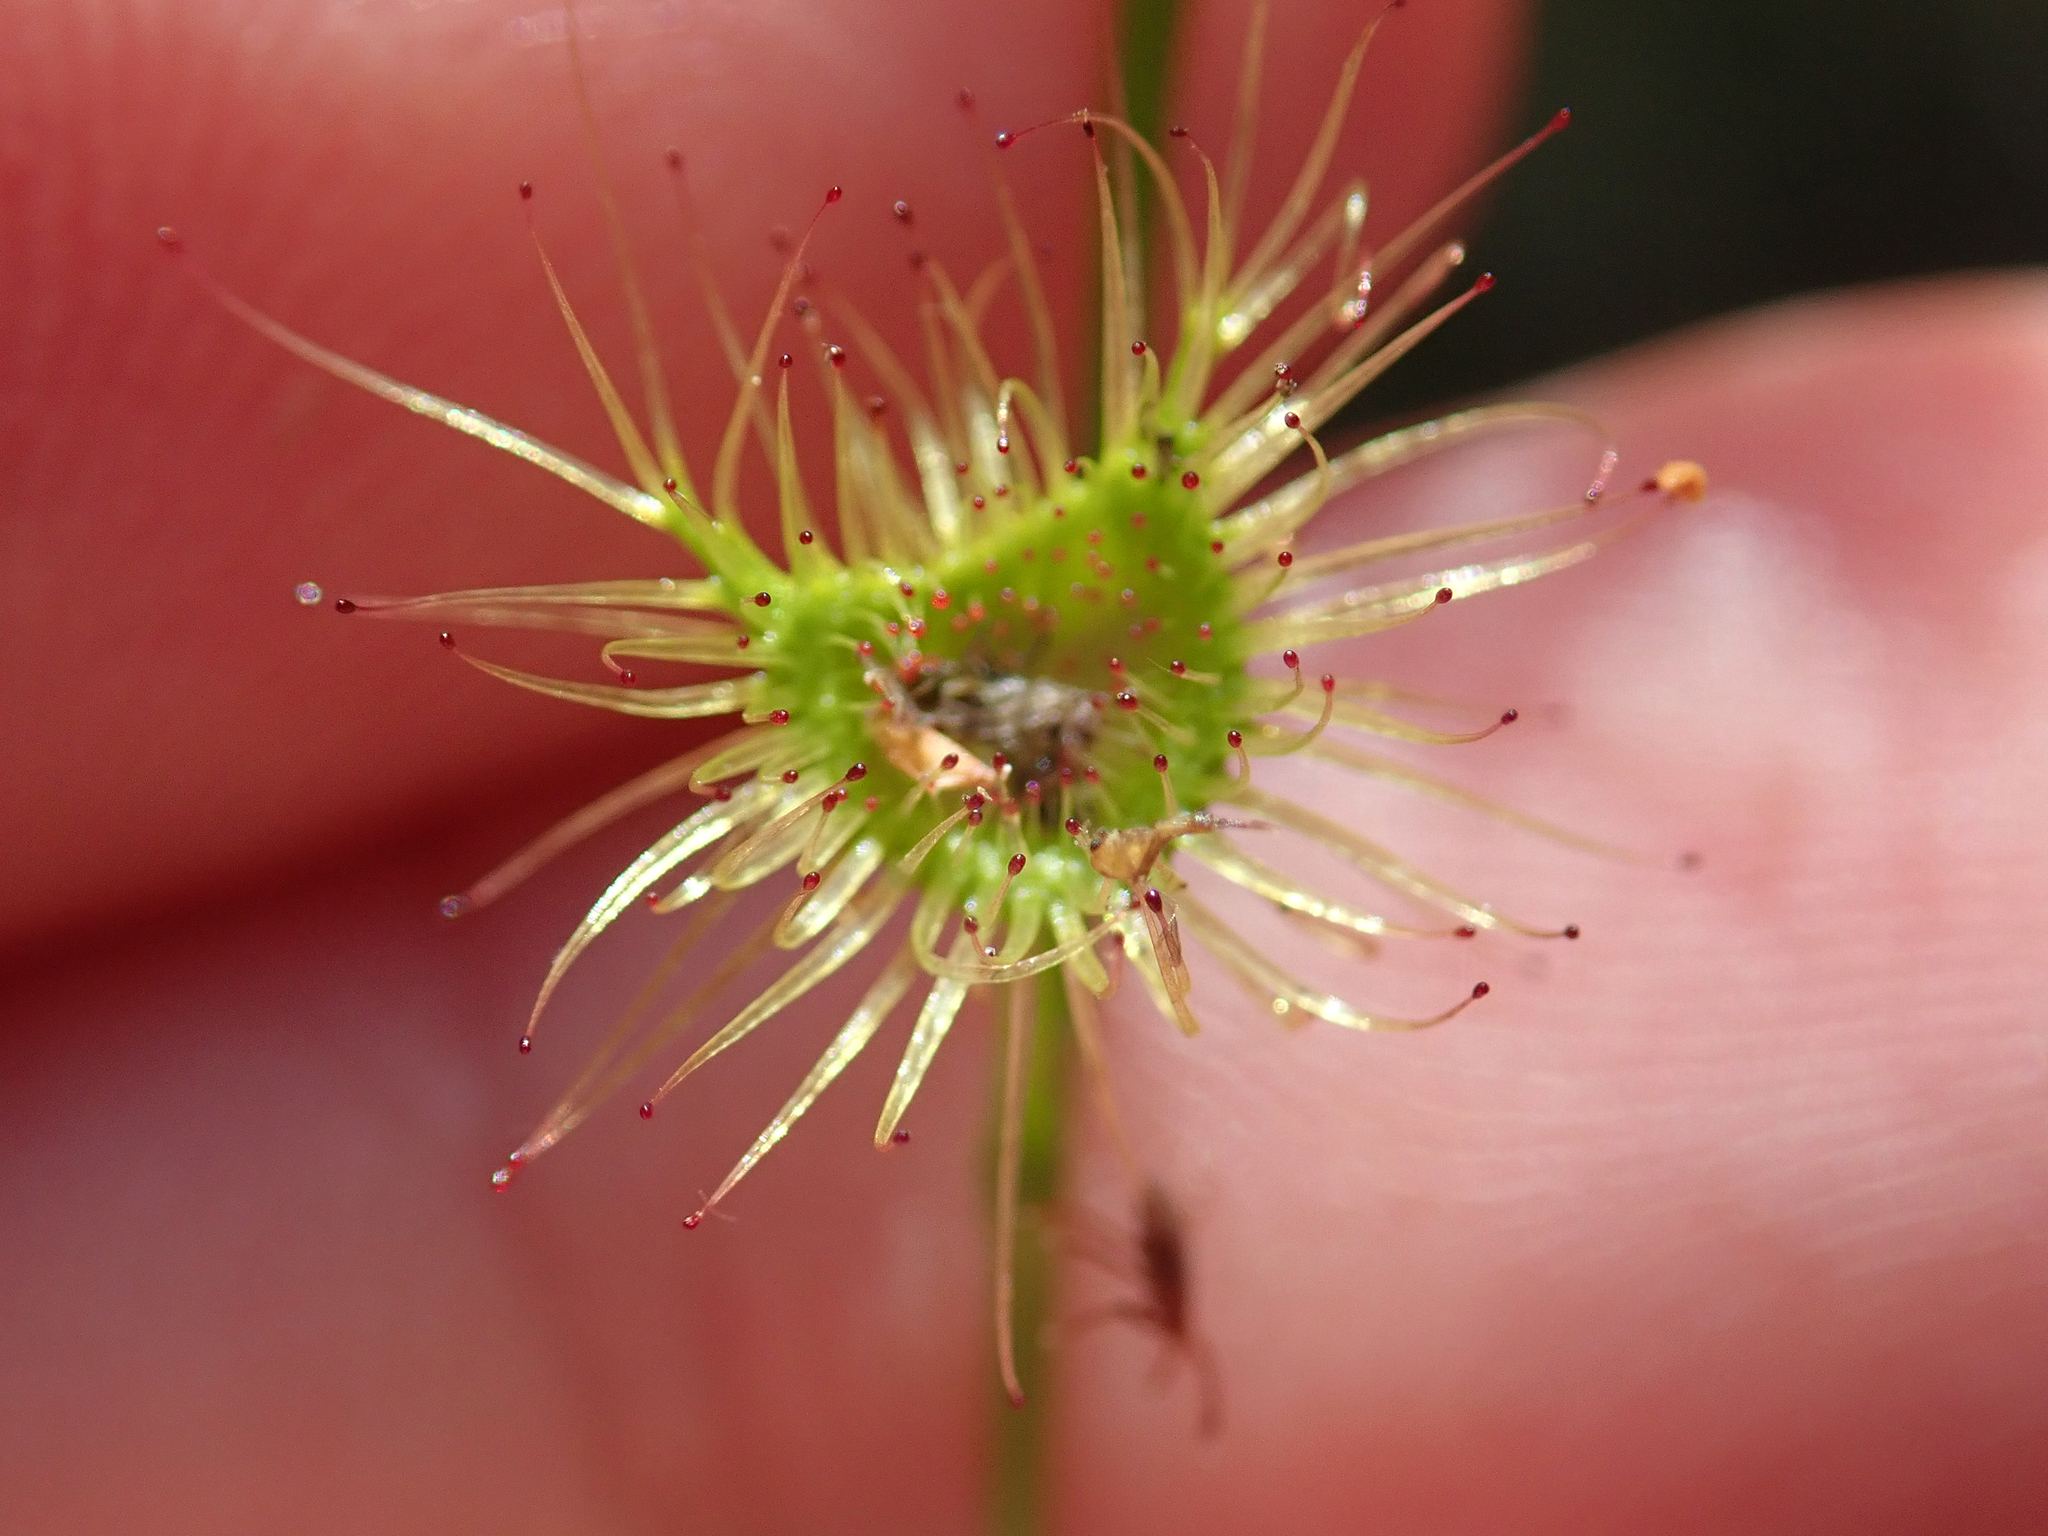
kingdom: Plantae
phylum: Tracheophyta
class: Magnoliopsida
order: Caryophyllales
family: Droseraceae
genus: Drosera
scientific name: Drosera gunniana
